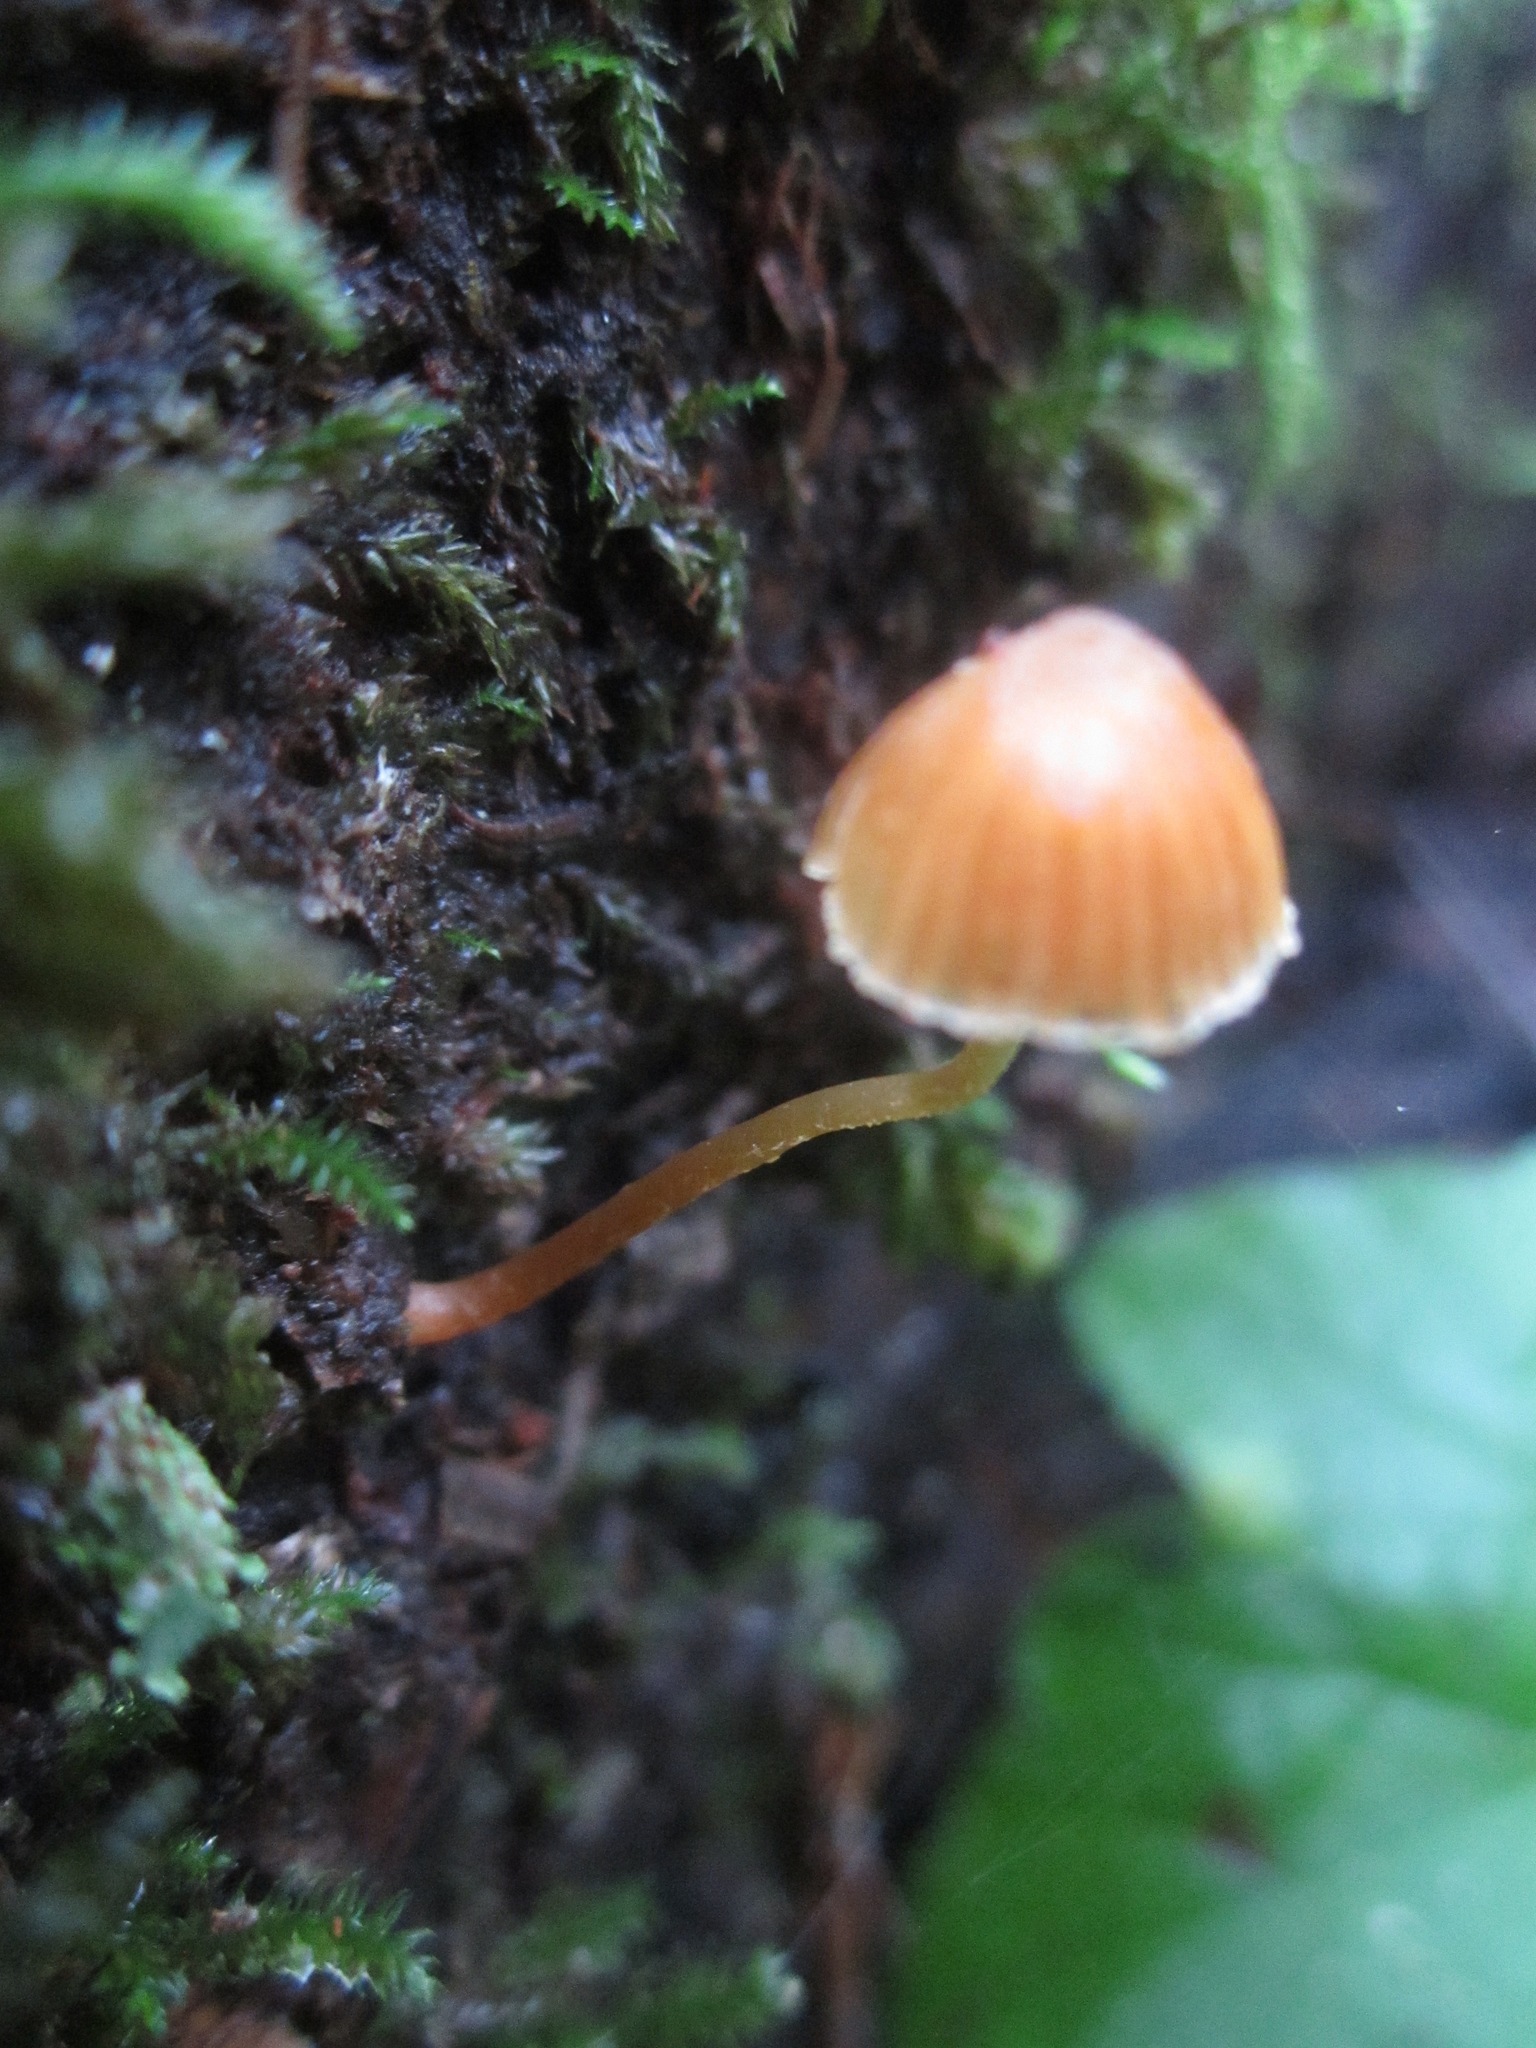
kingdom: Fungi
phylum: Basidiomycota
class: Agaricomycetes
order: Agaricales
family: Hymenogastraceae
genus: Galerina
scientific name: Galerina vittiformis
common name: Hairy leg bell
